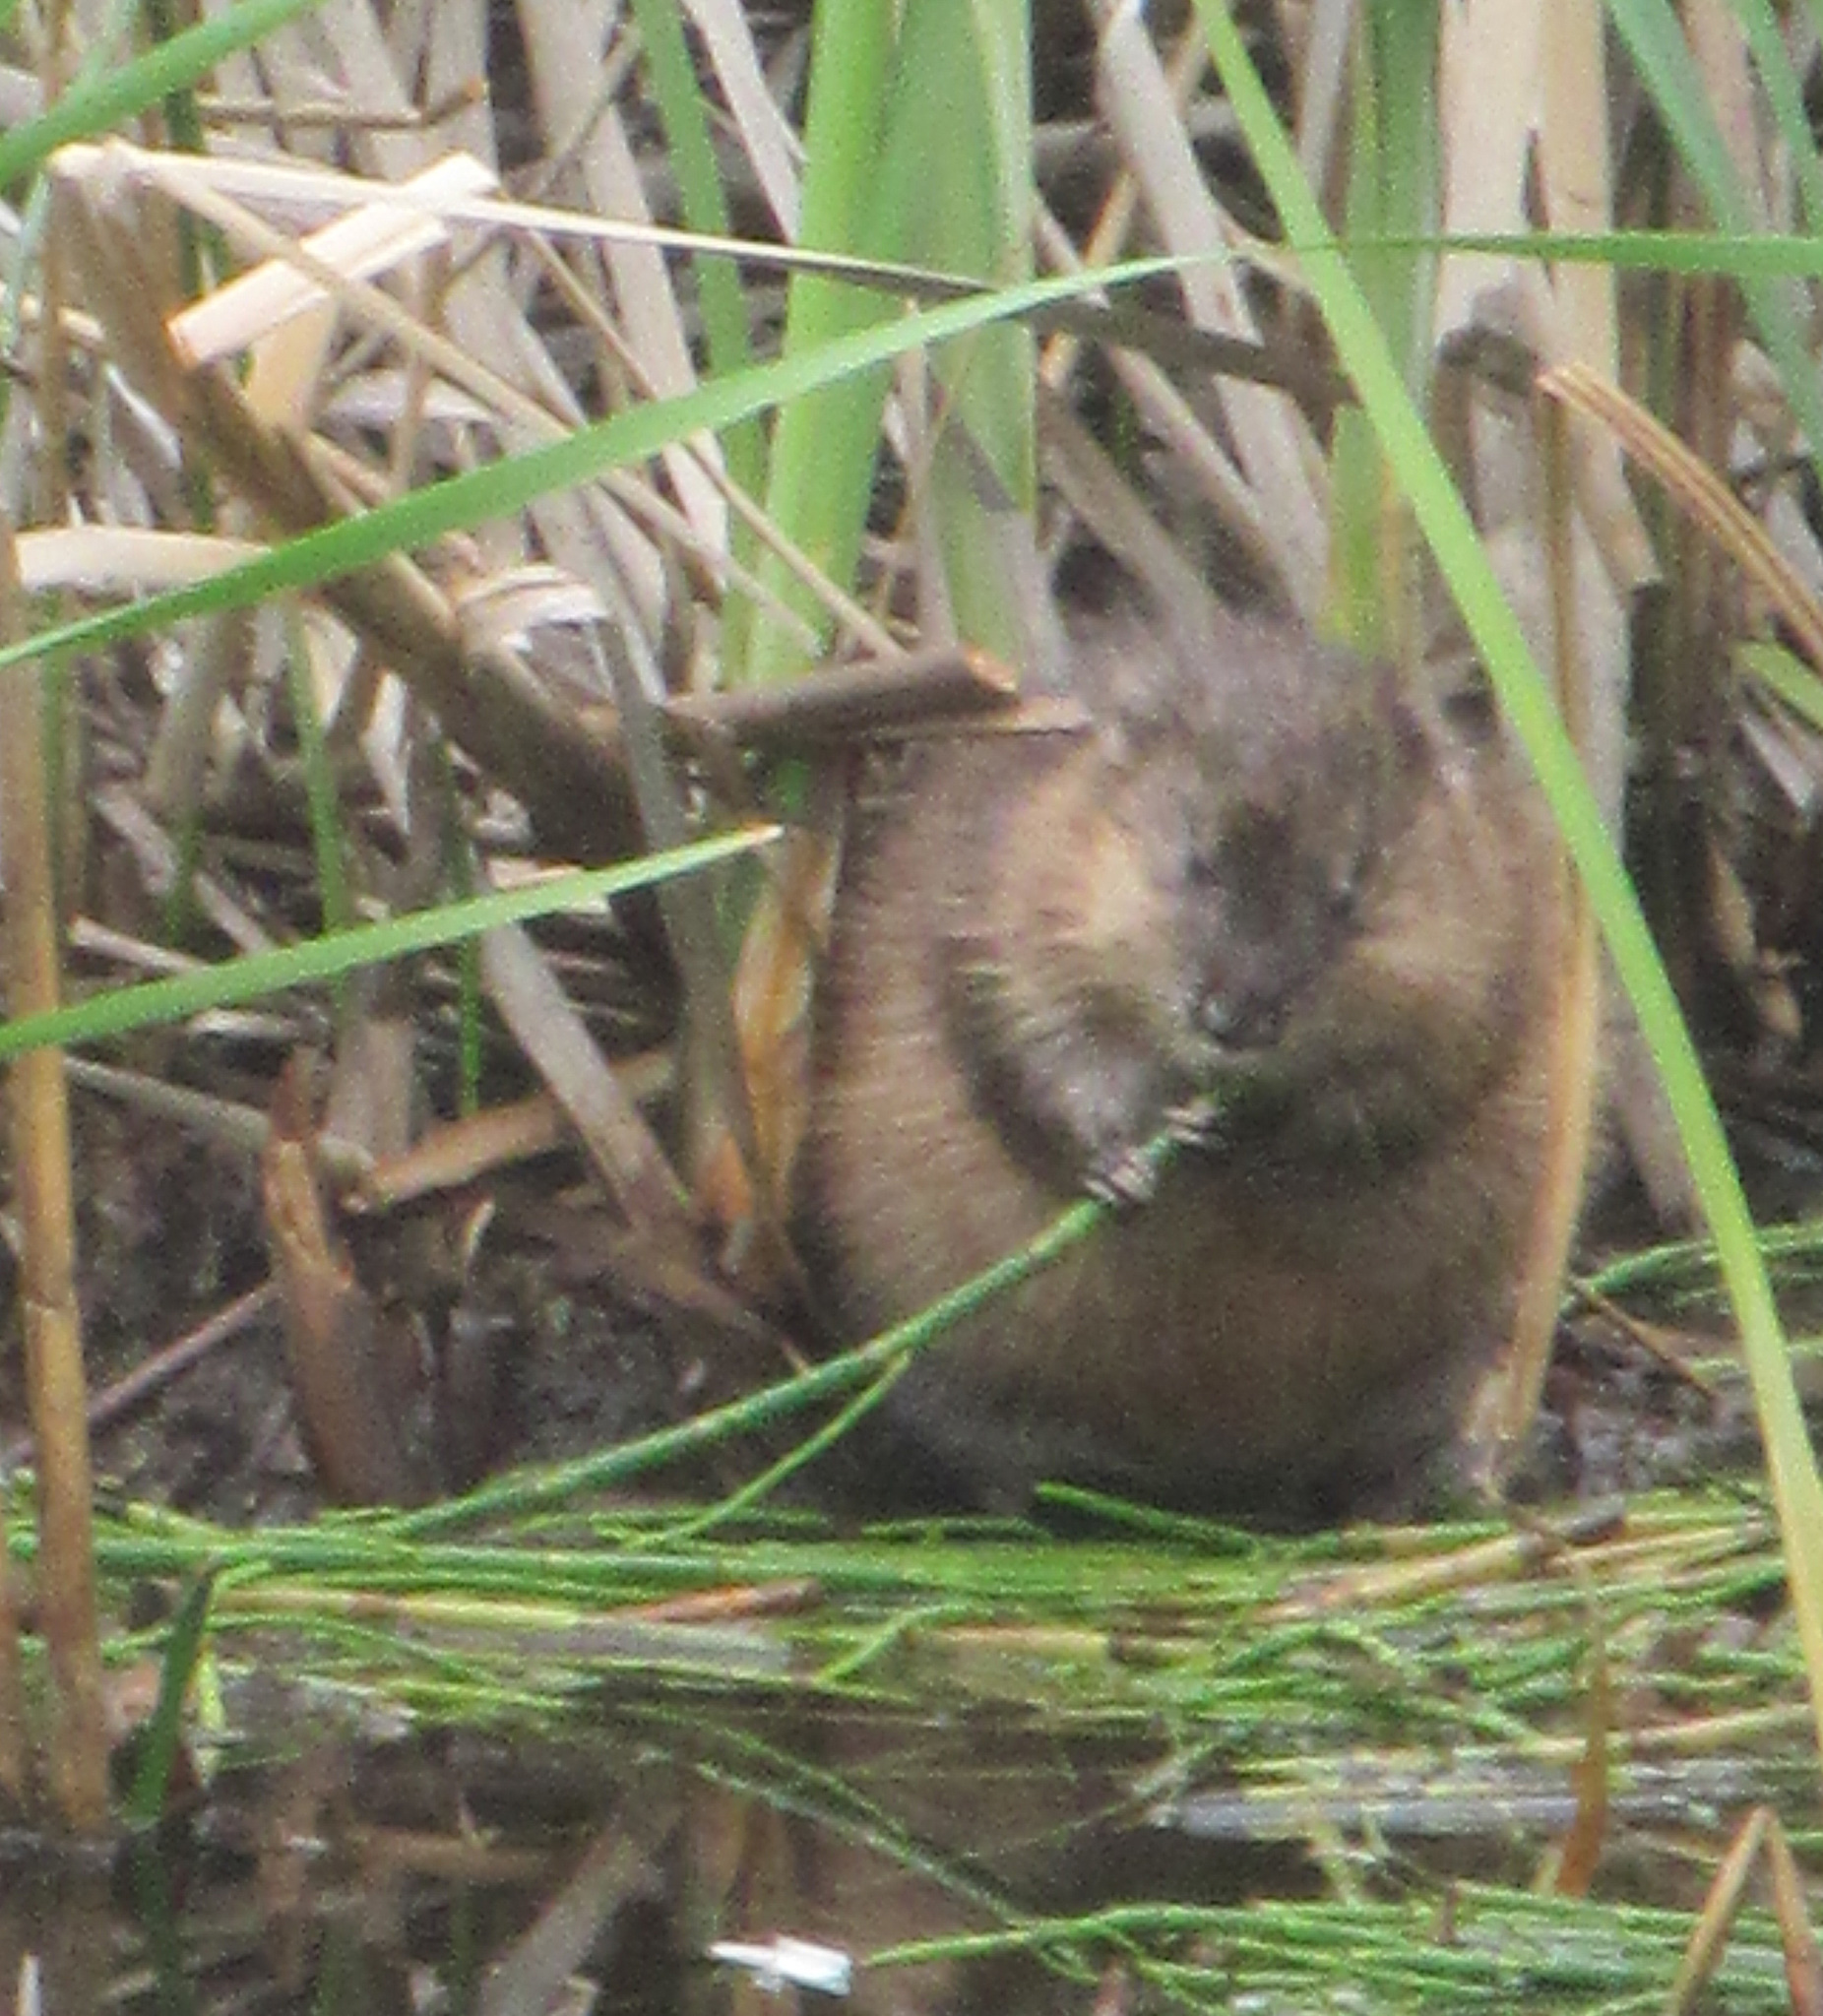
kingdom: Animalia
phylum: Chordata
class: Mammalia
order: Rodentia
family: Cricetidae
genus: Ondatra
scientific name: Ondatra zibethicus
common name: Muskrat
